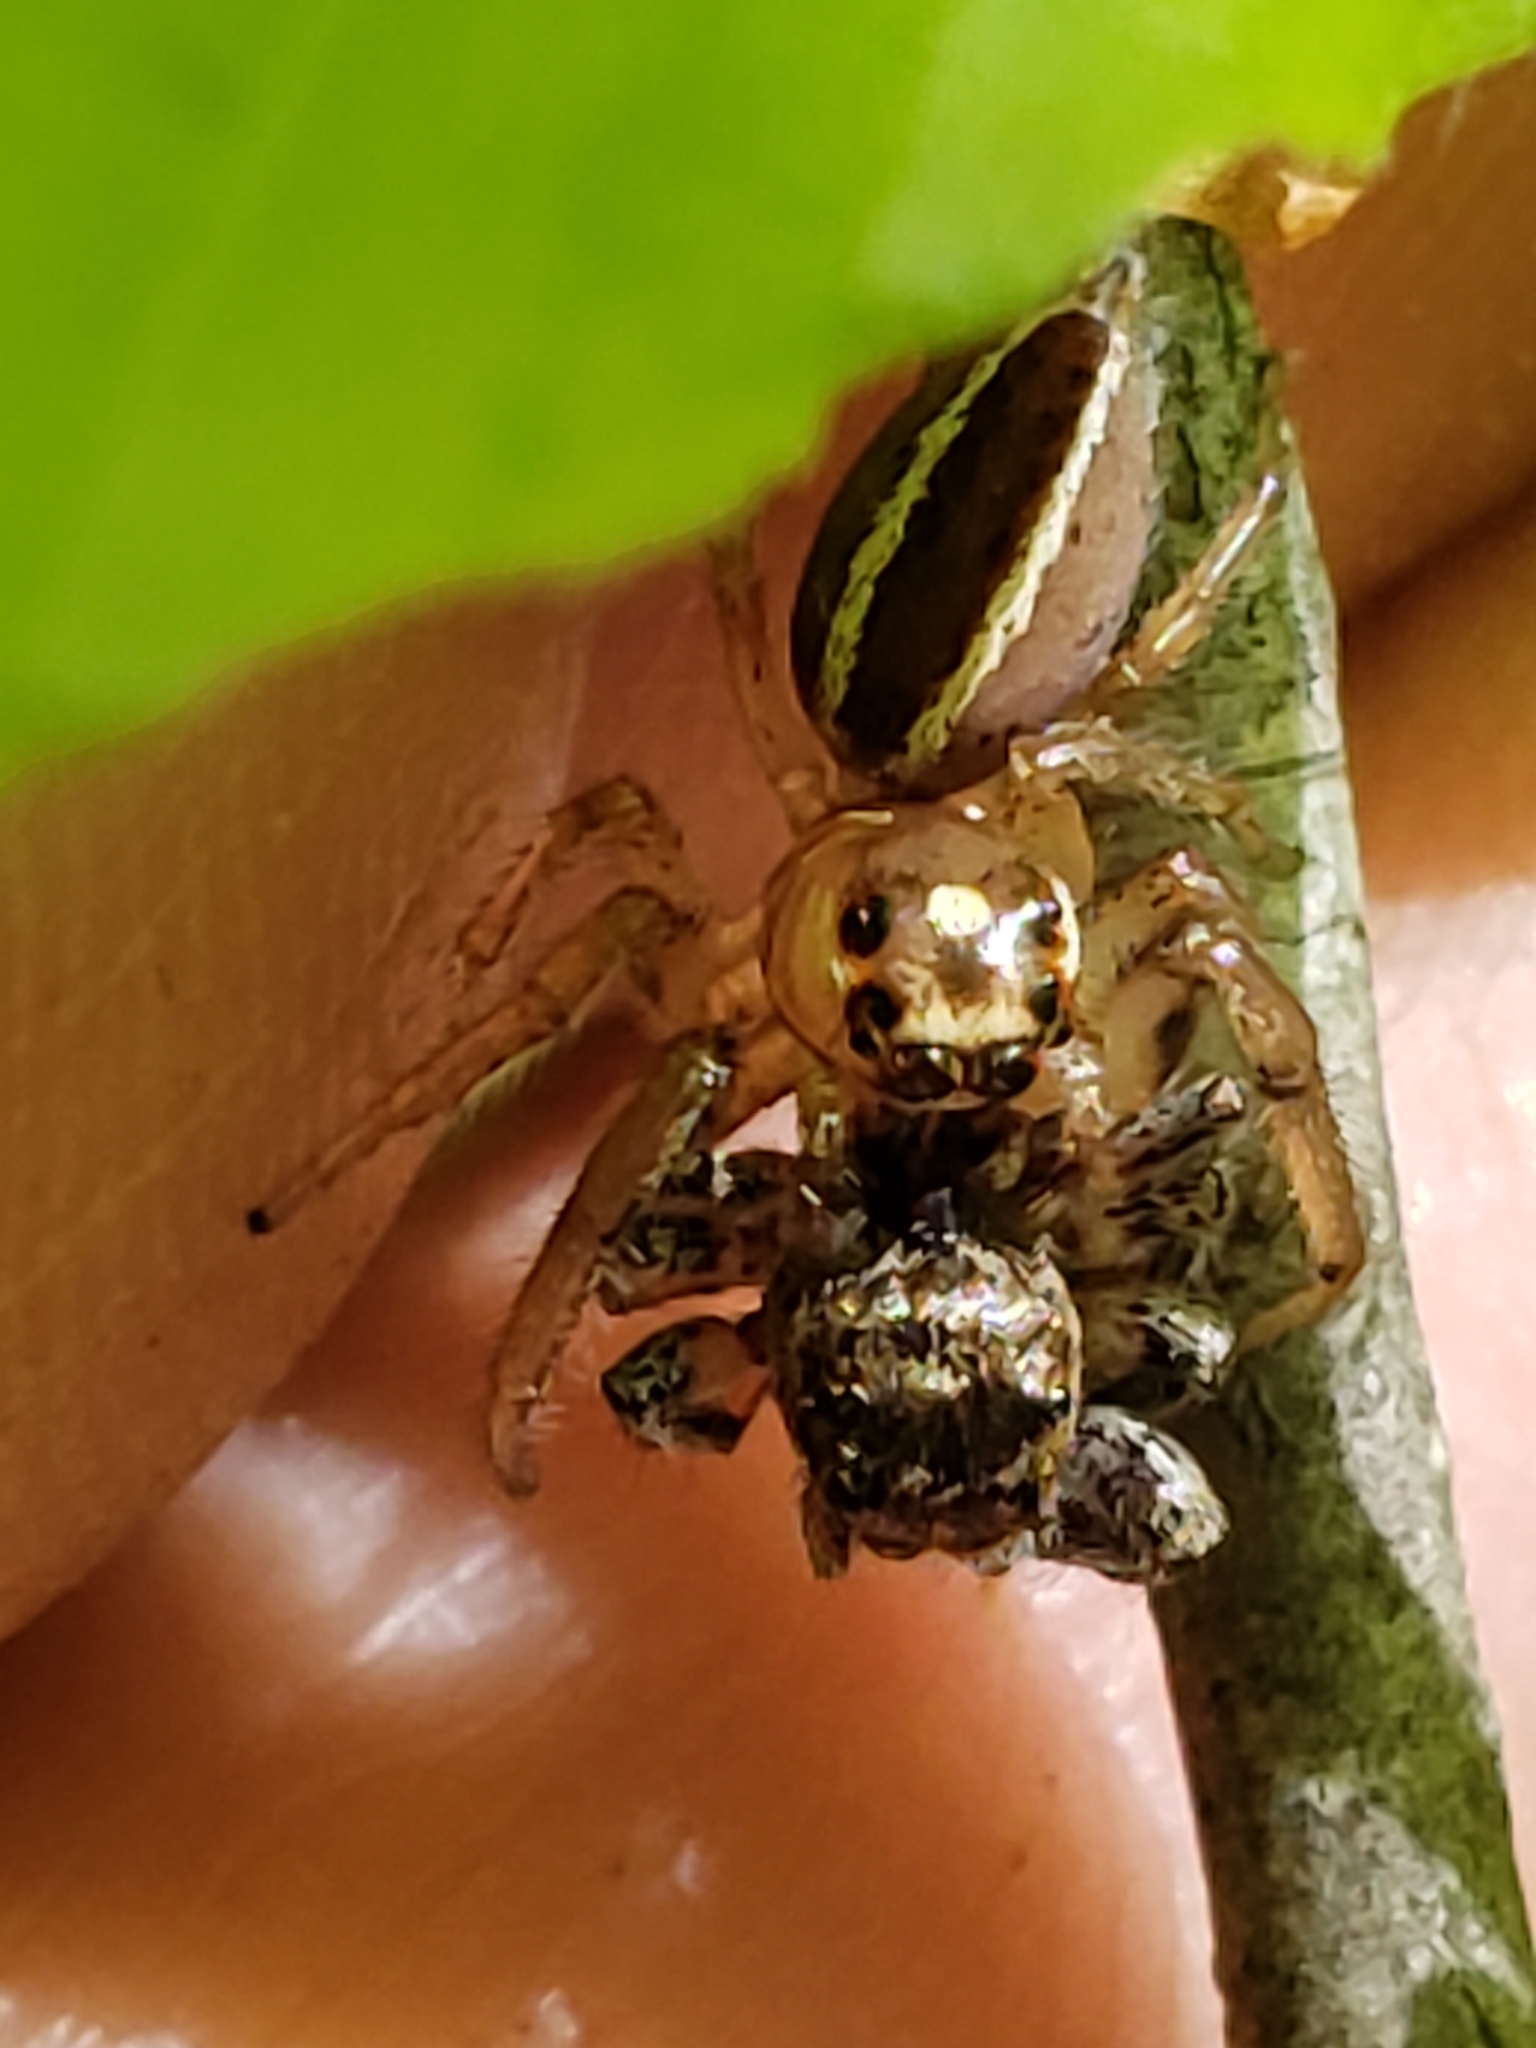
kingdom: Animalia
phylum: Arthropoda
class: Arachnida
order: Araneae
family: Salticidae
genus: Colonus
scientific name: Colonus sylvanus
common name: Jumping spiders
